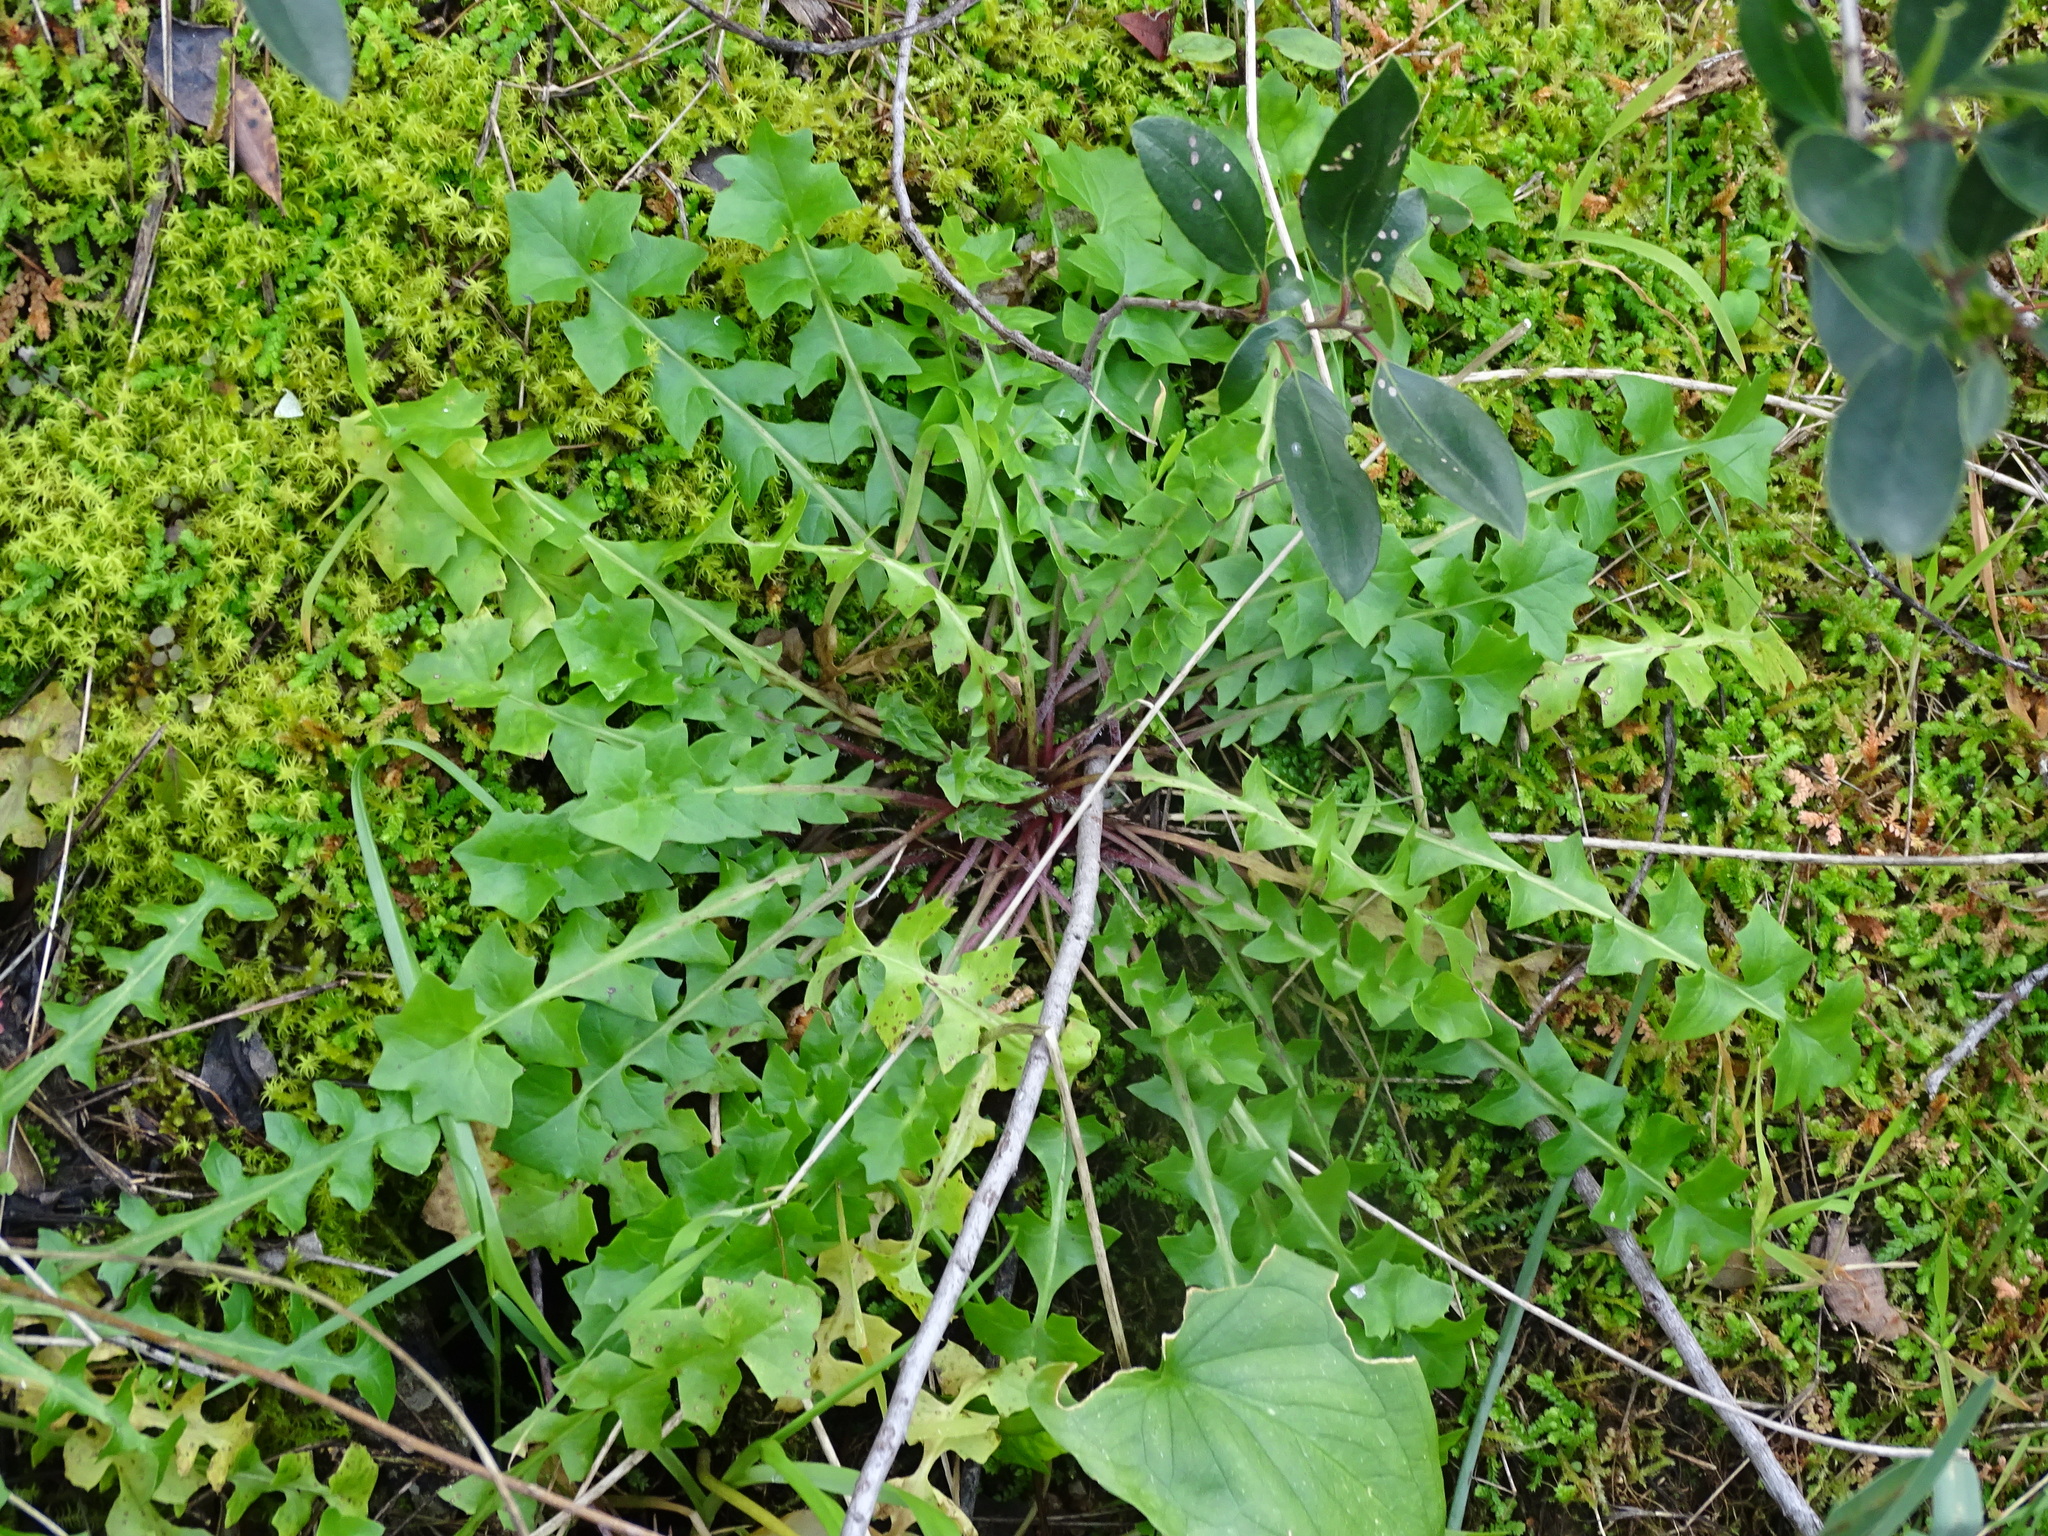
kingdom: Plantae
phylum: Tracheophyta
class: Magnoliopsida
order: Asterales
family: Asteraceae
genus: Hyoseris
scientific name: Hyoseris radiata
